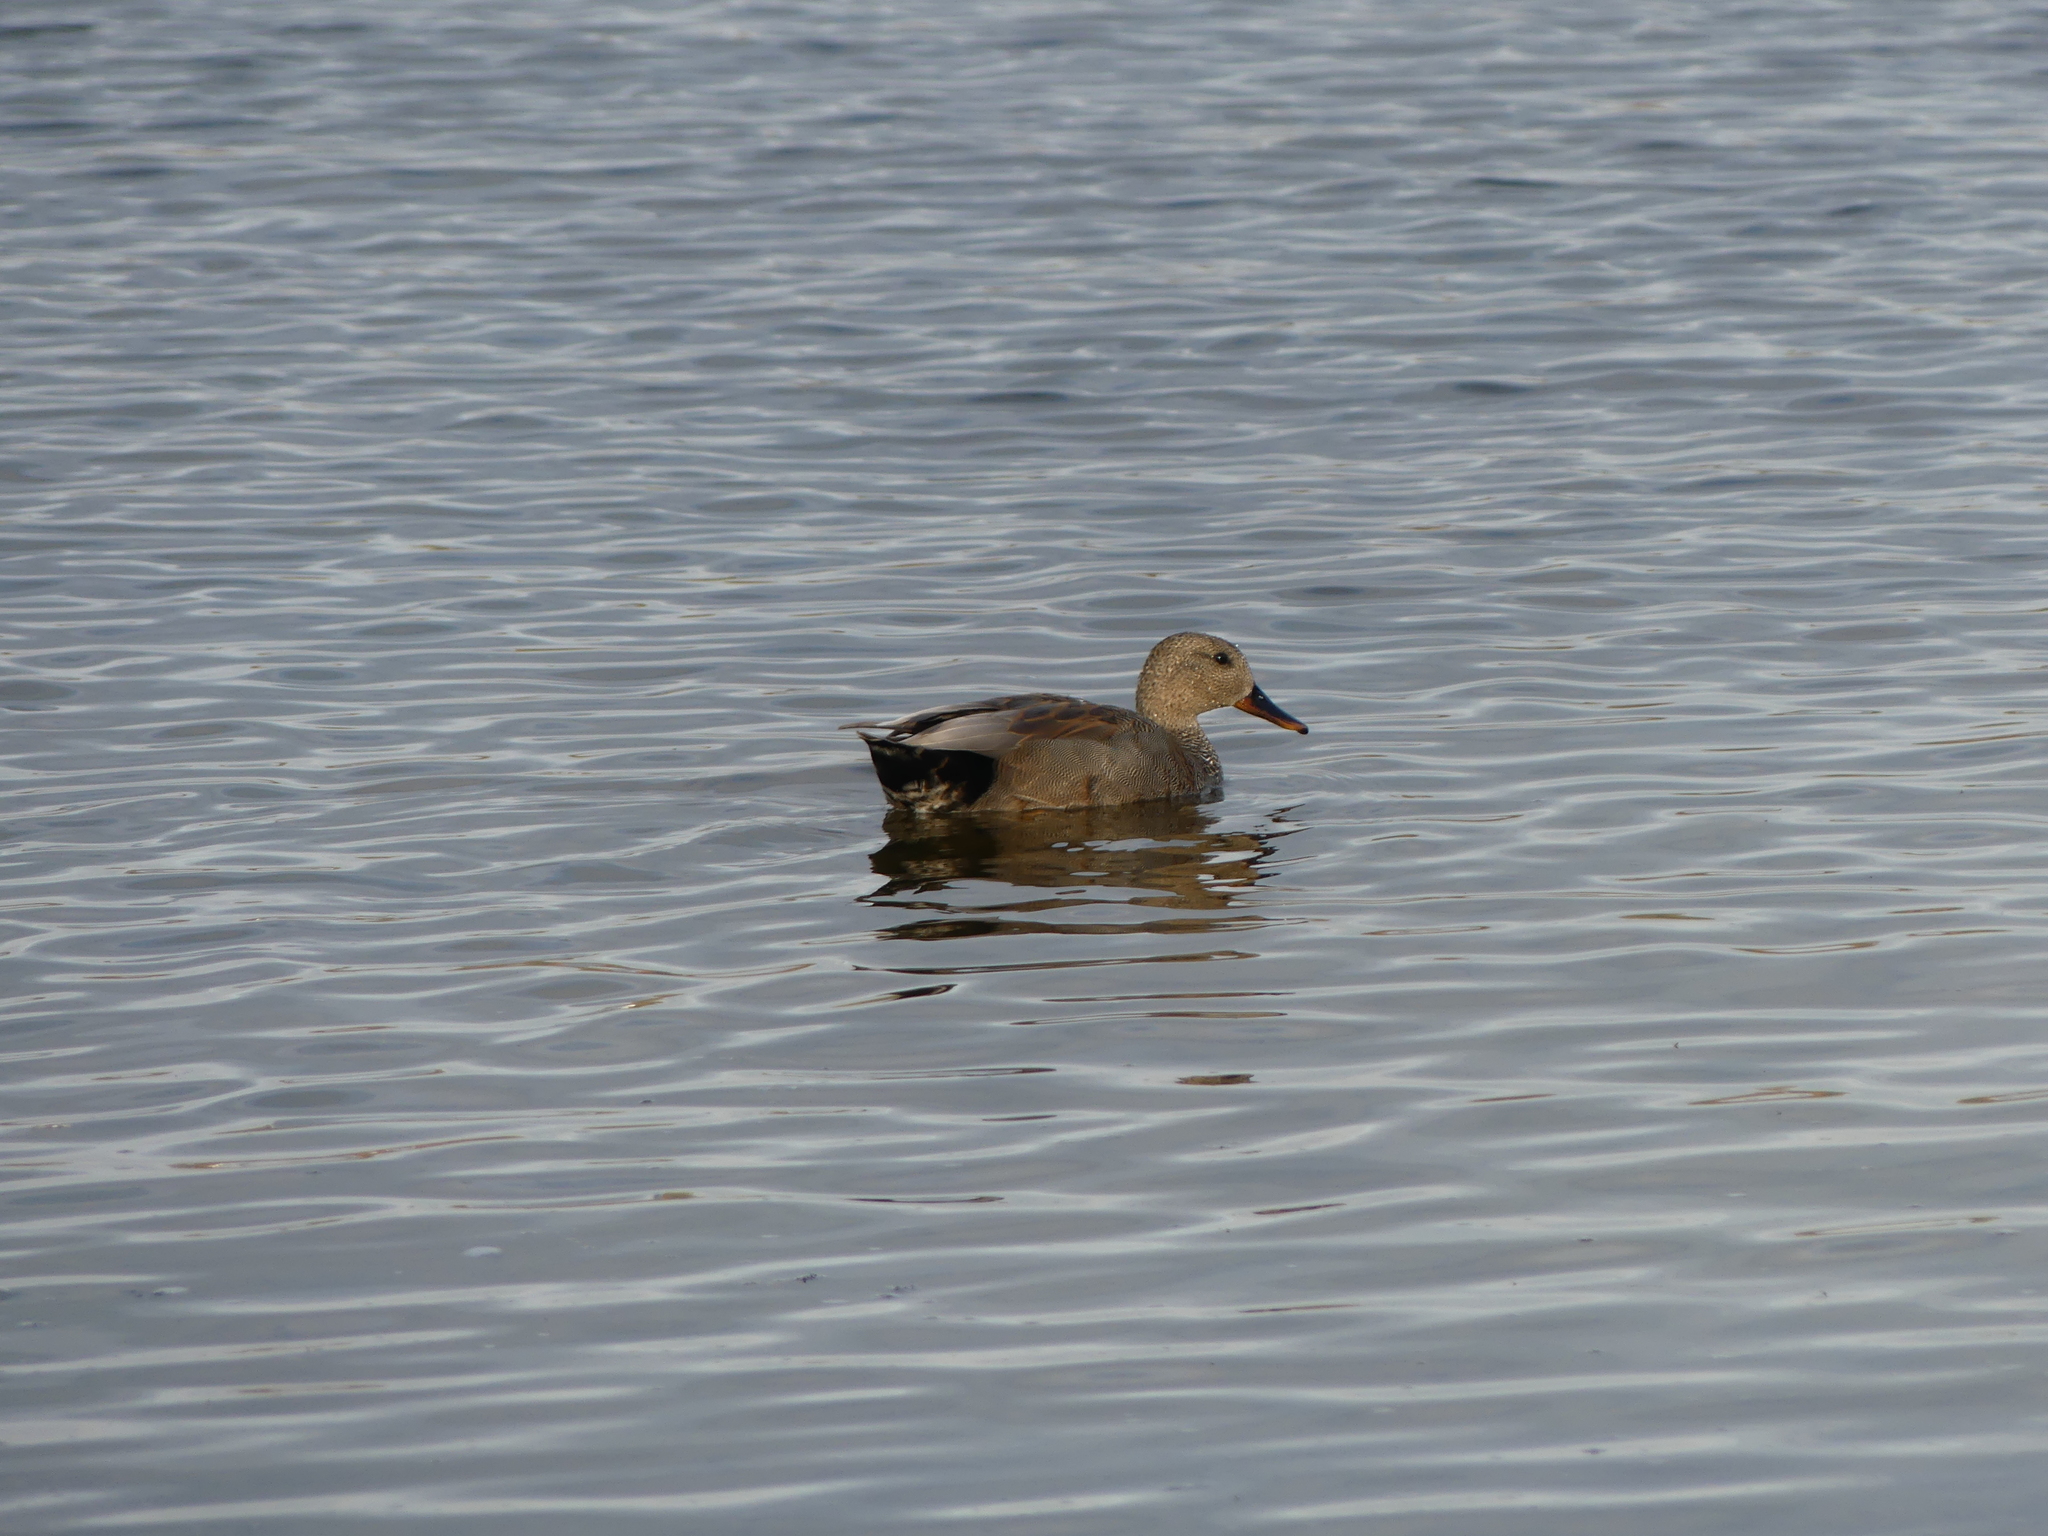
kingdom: Animalia
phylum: Chordata
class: Aves
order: Anseriformes
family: Anatidae
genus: Mareca
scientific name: Mareca strepera
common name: Gadwall
